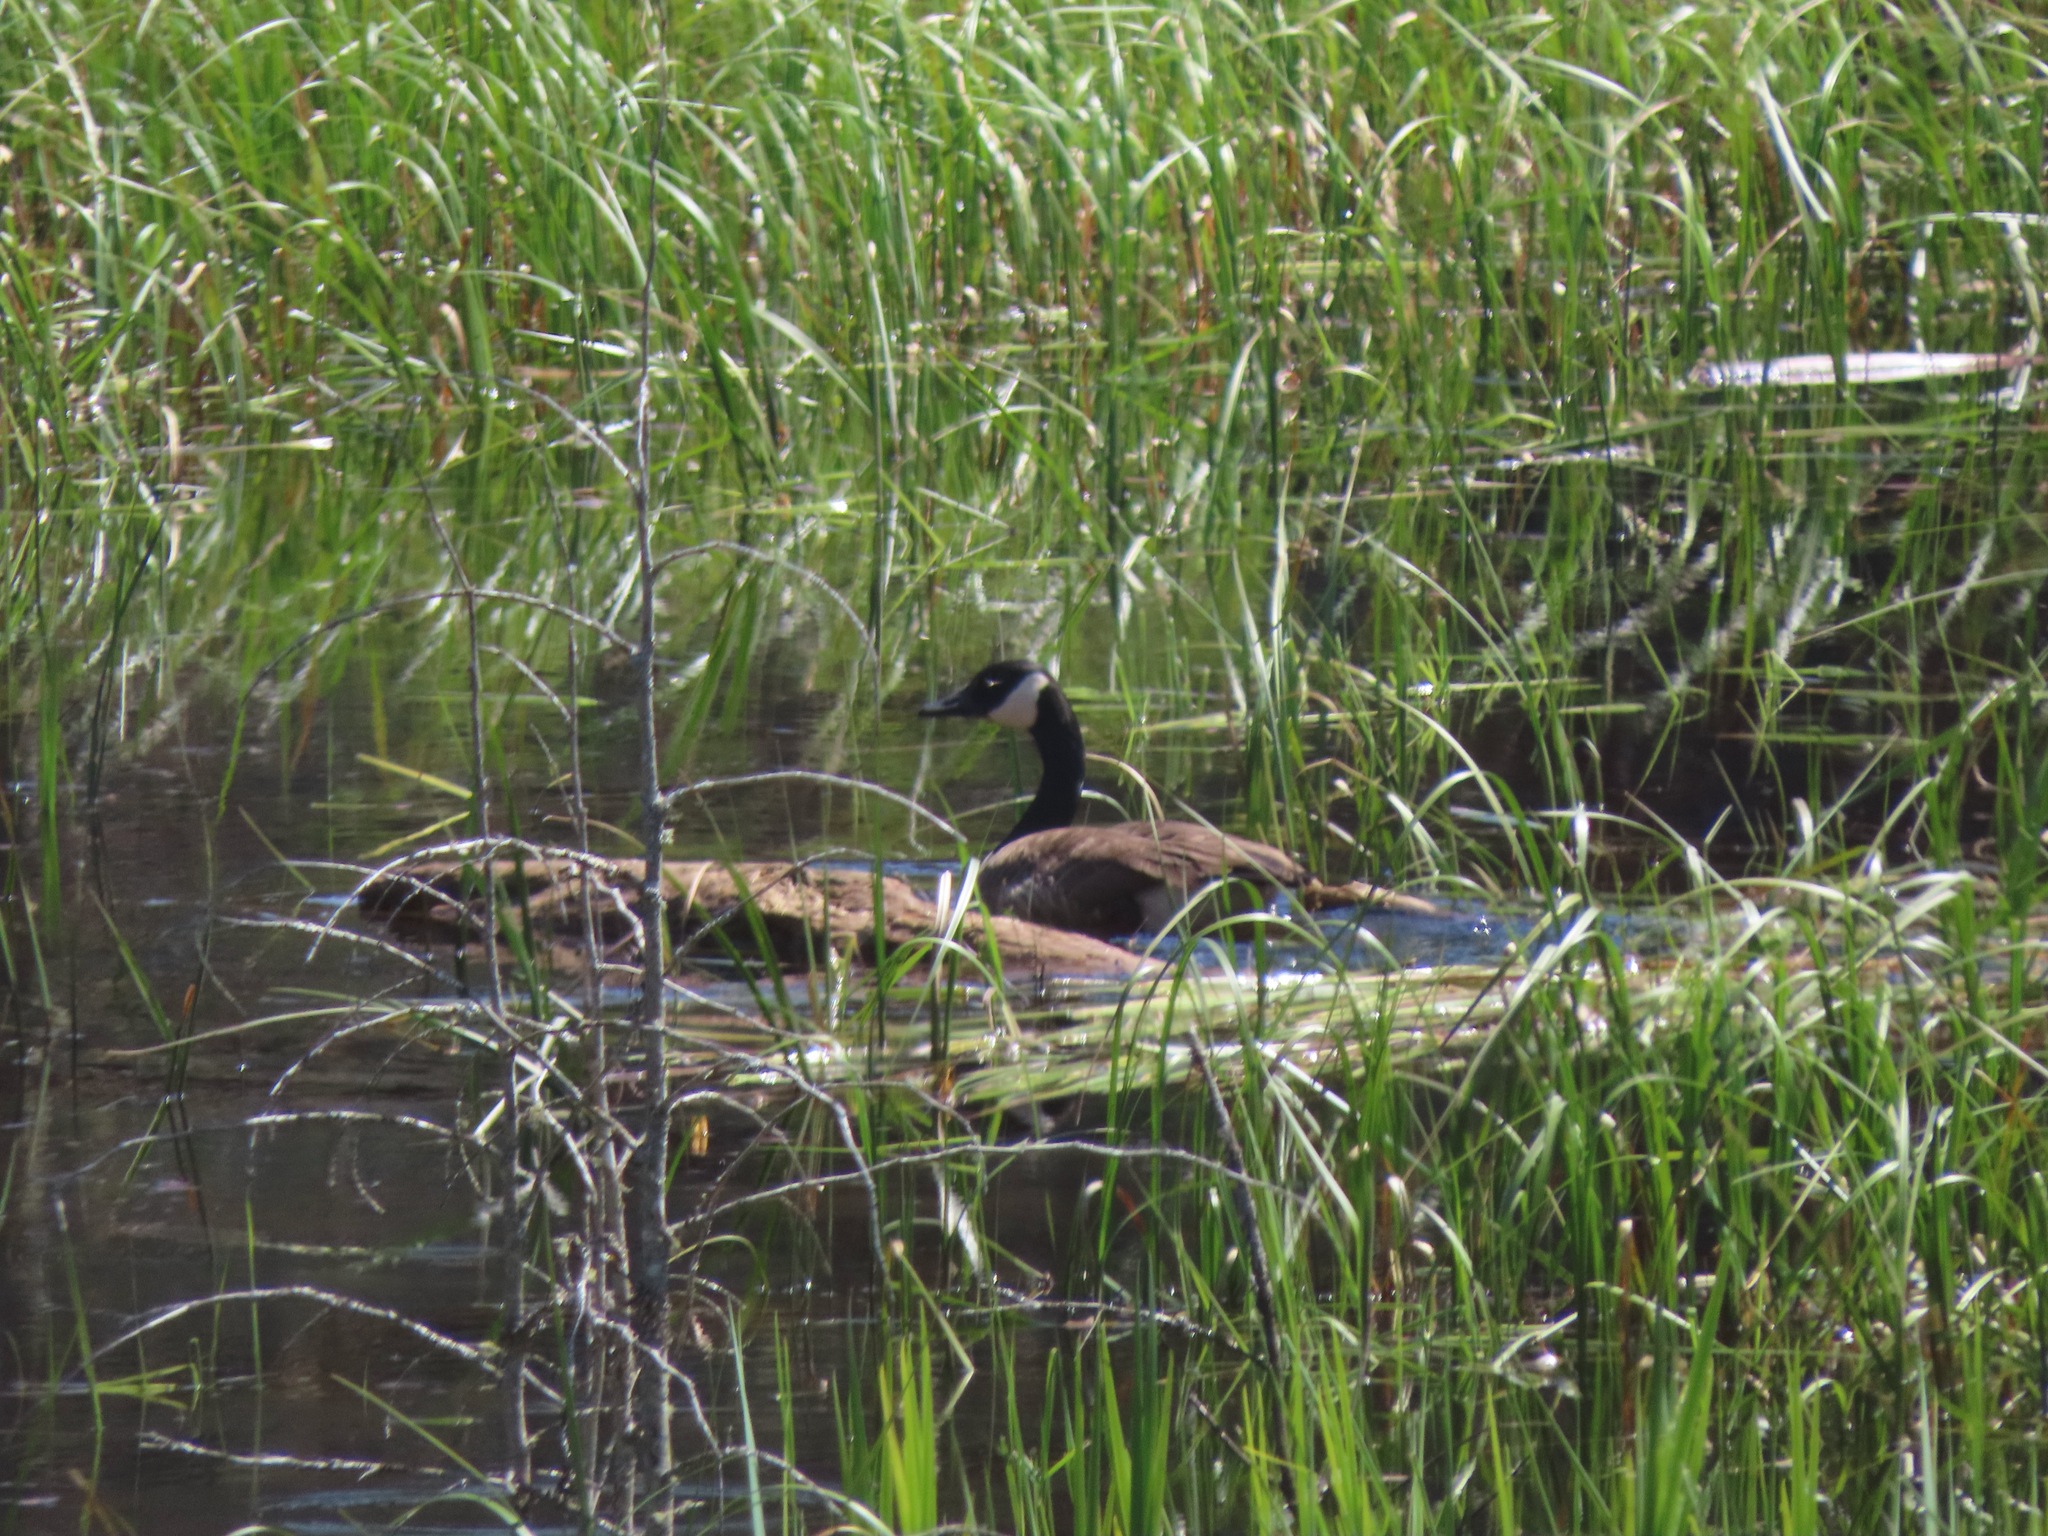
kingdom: Animalia
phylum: Chordata
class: Aves
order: Anseriformes
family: Anatidae
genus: Branta
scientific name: Branta canadensis
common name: Canada goose
